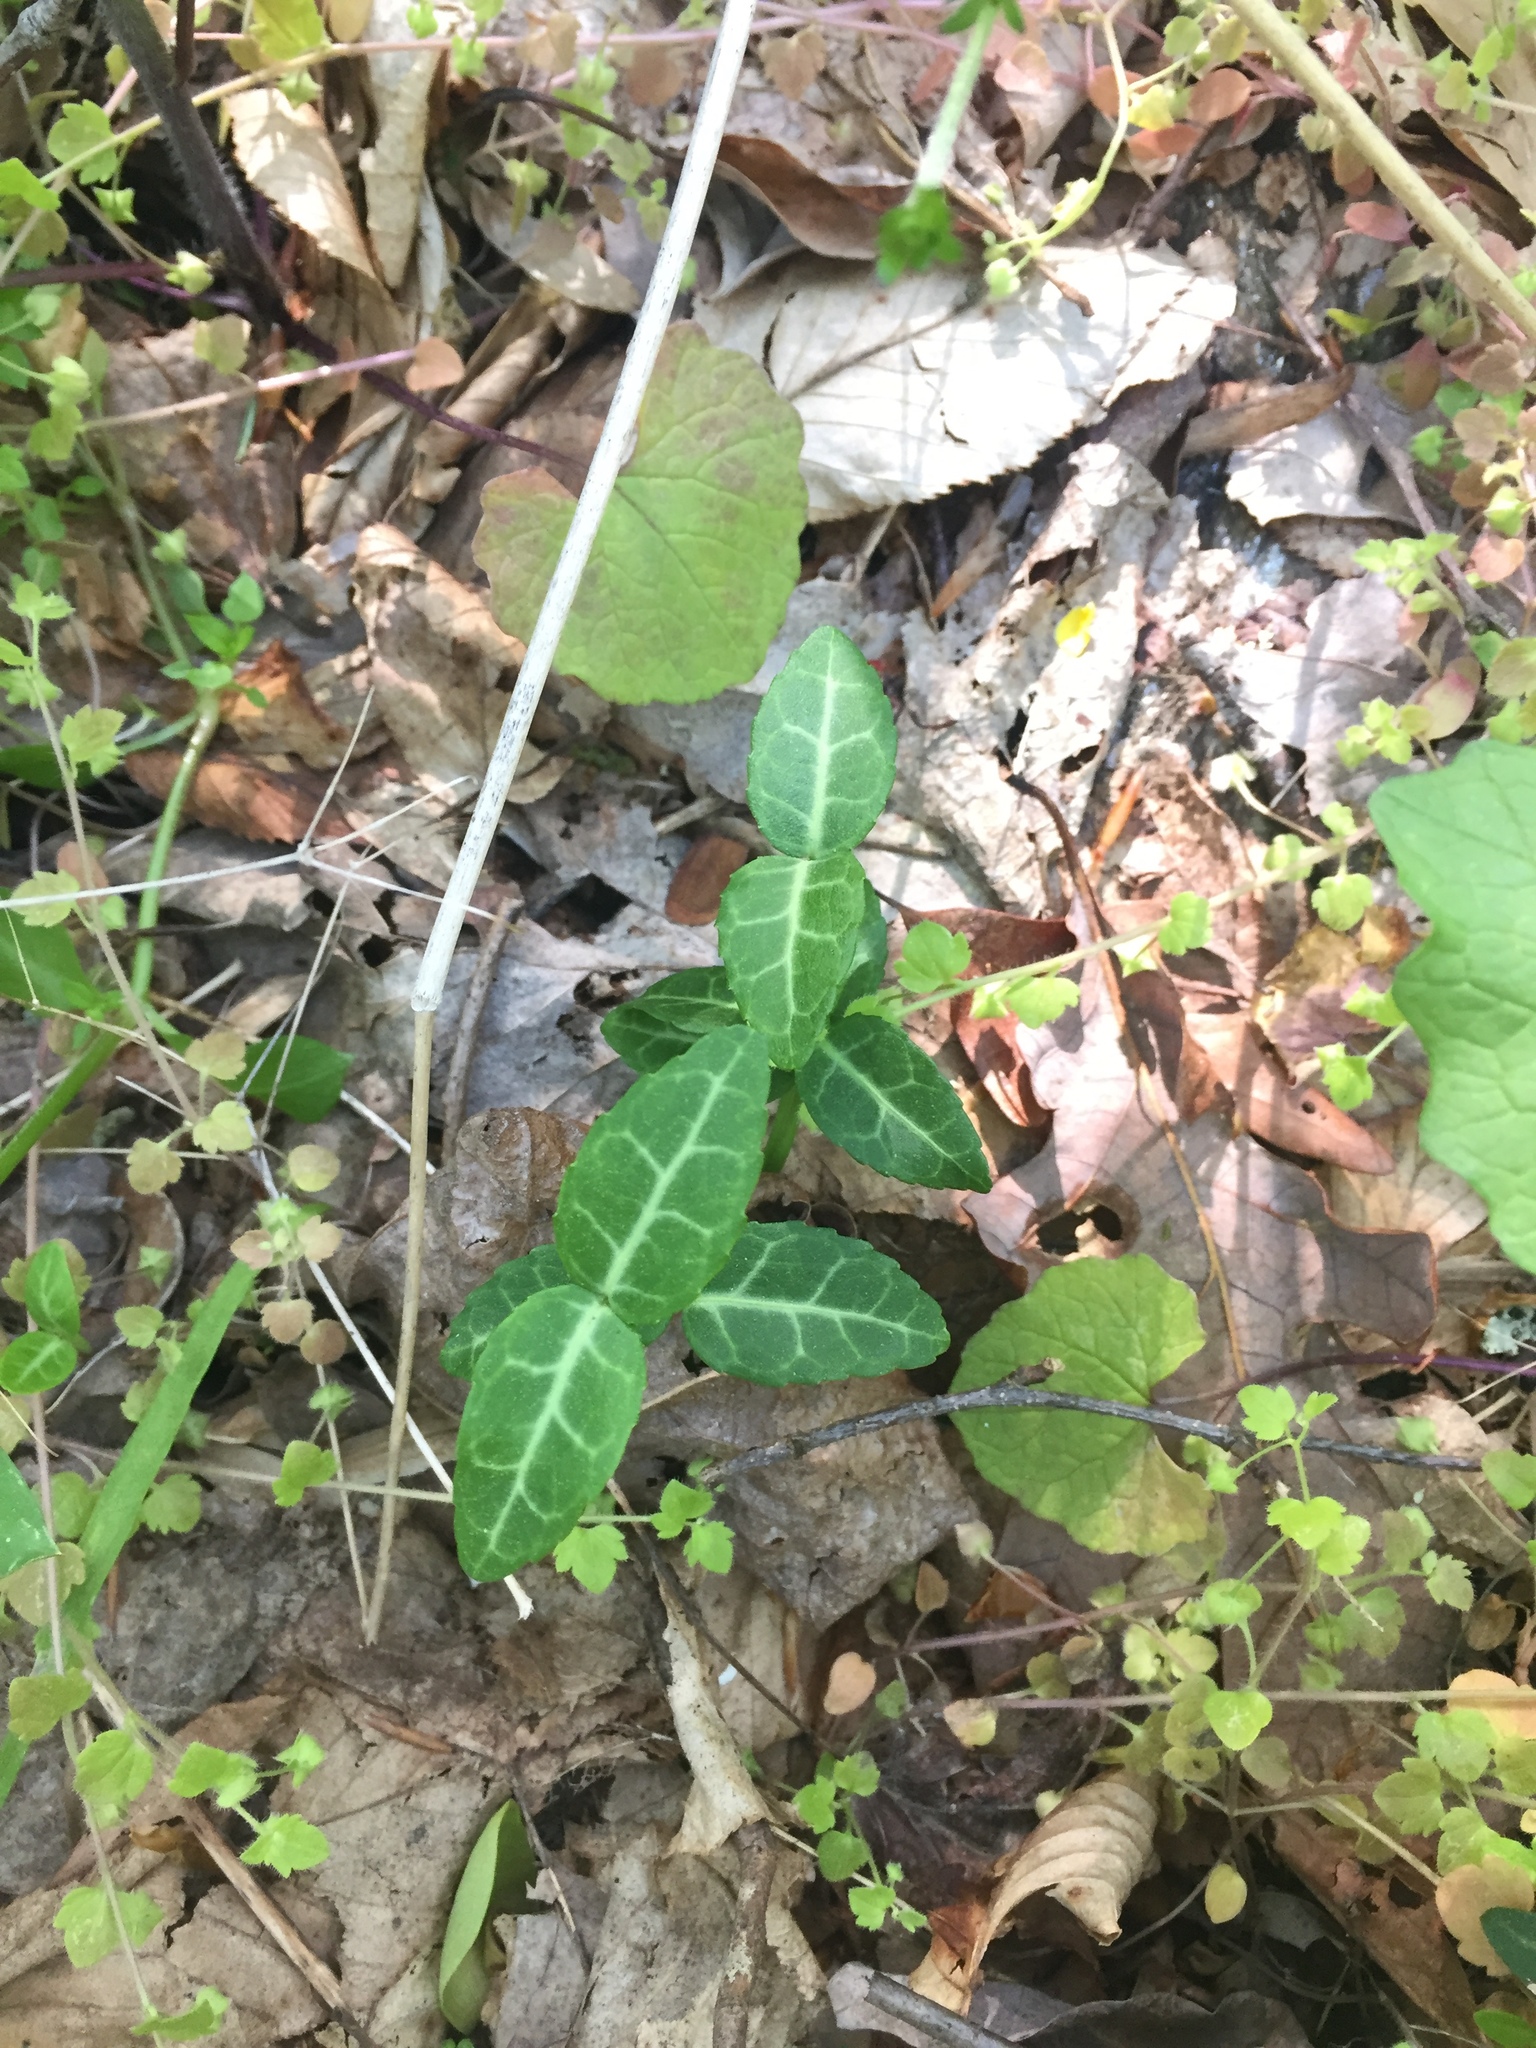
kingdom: Plantae
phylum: Tracheophyta
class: Magnoliopsida
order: Celastrales
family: Celastraceae
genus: Euonymus
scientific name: Euonymus fortunei
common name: Climbing euonymus
